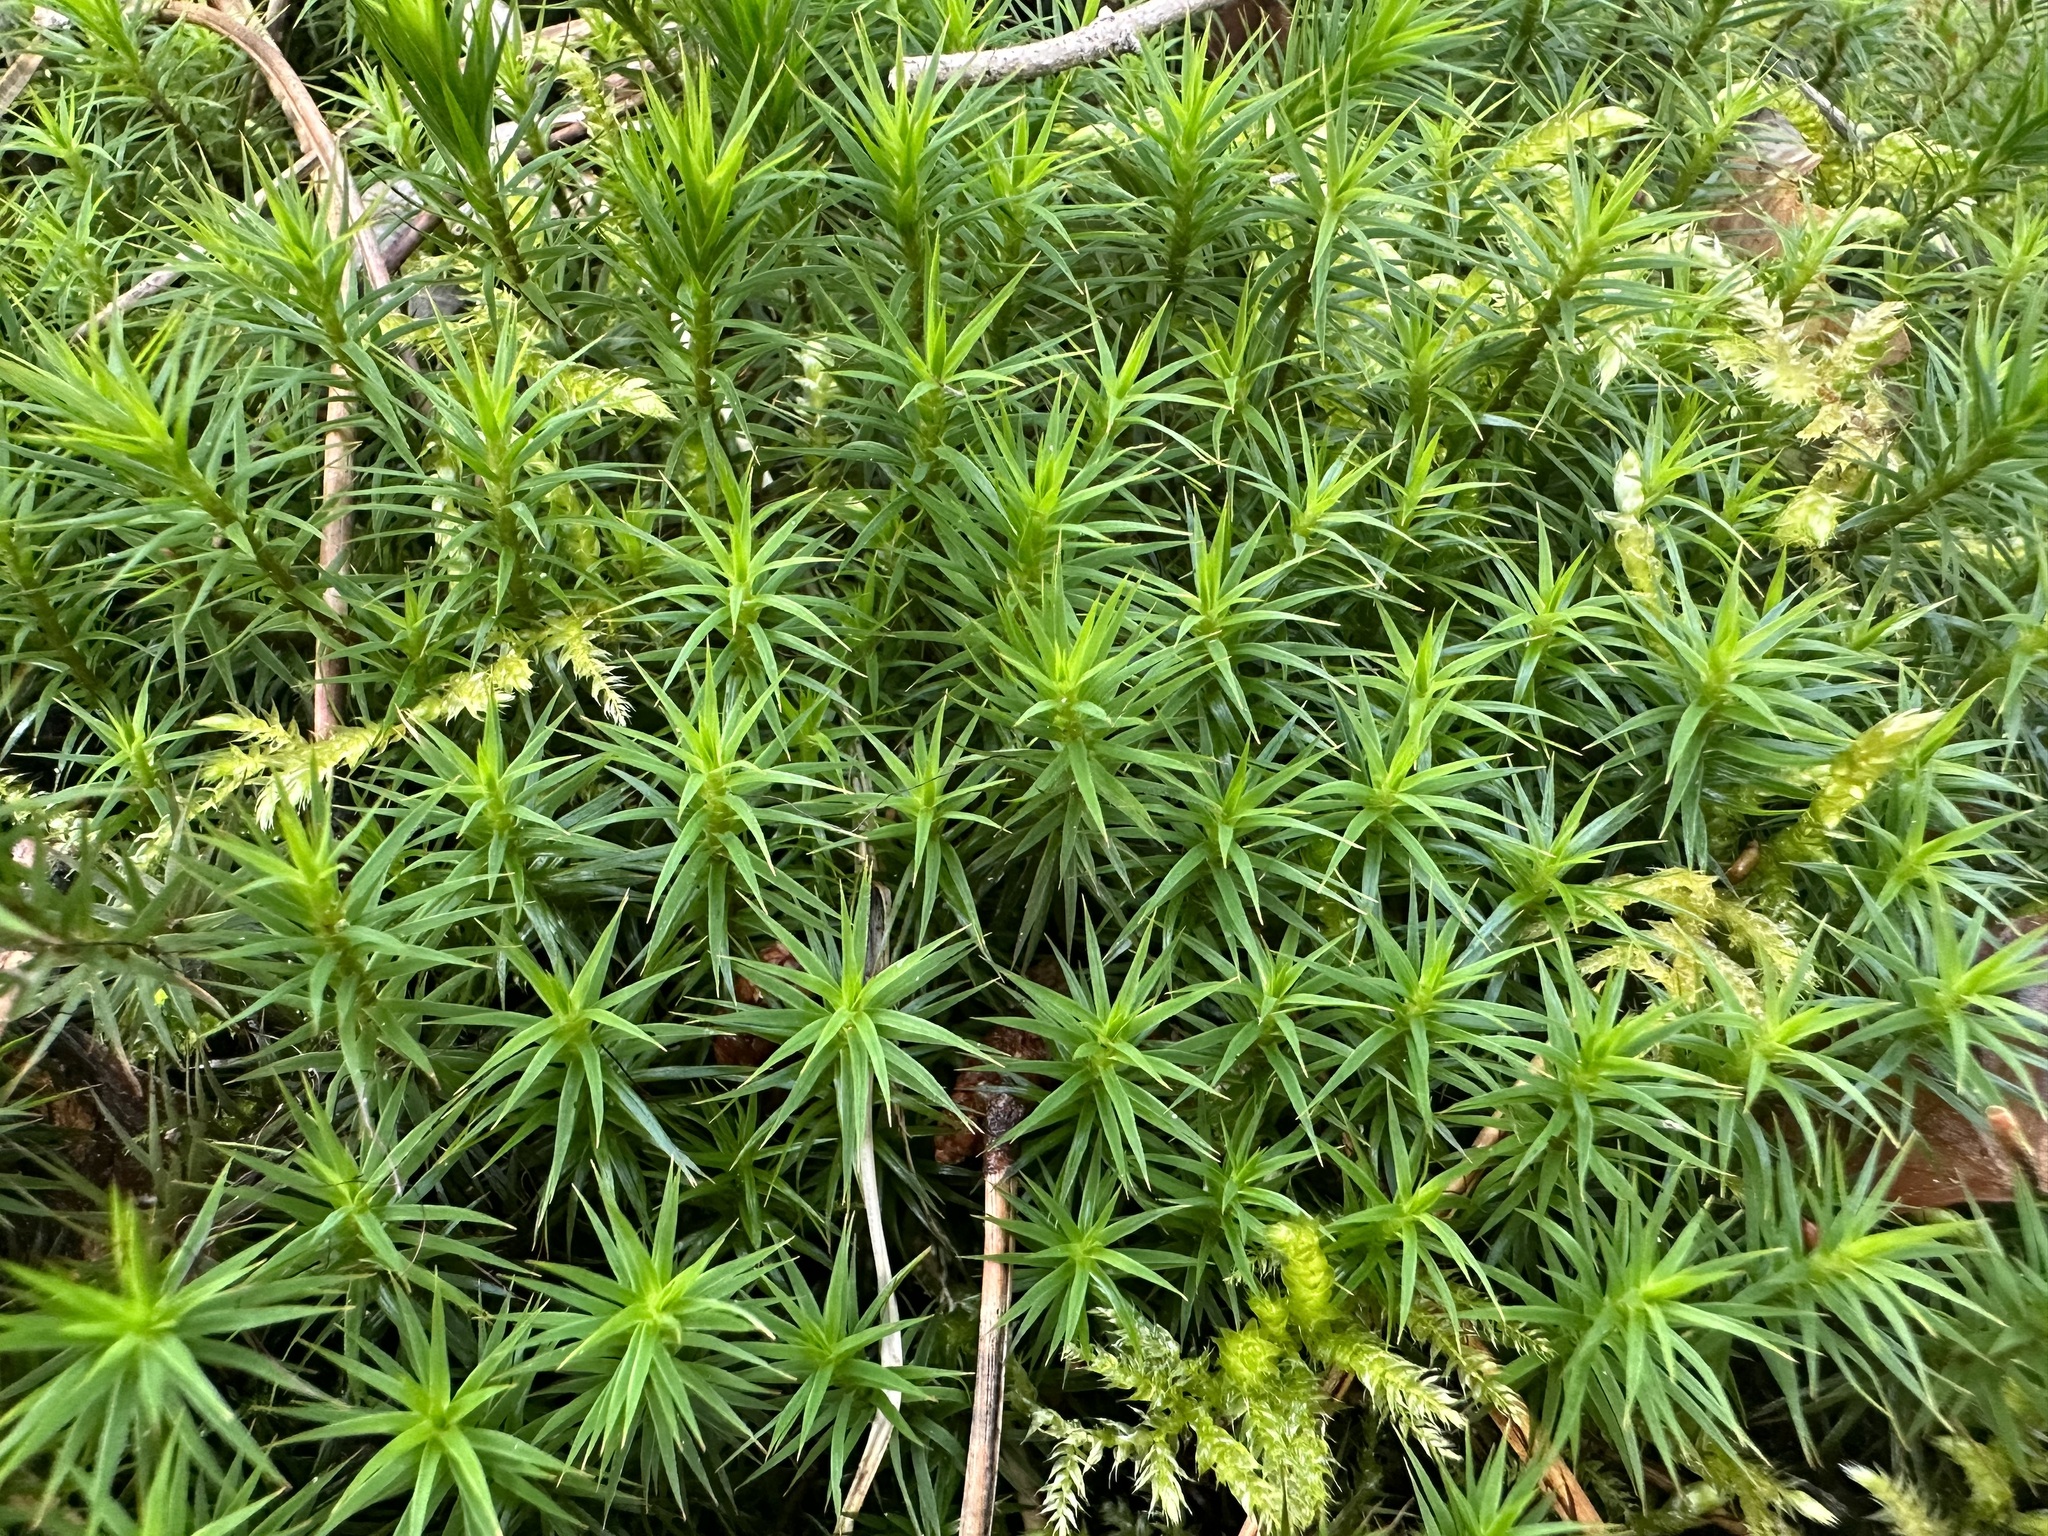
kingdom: Plantae
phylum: Bryophyta
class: Polytrichopsida
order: Polytrichales
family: Polytrichaceae
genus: Polytrichum
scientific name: Polytrichum formosum
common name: Bank haircap moss
